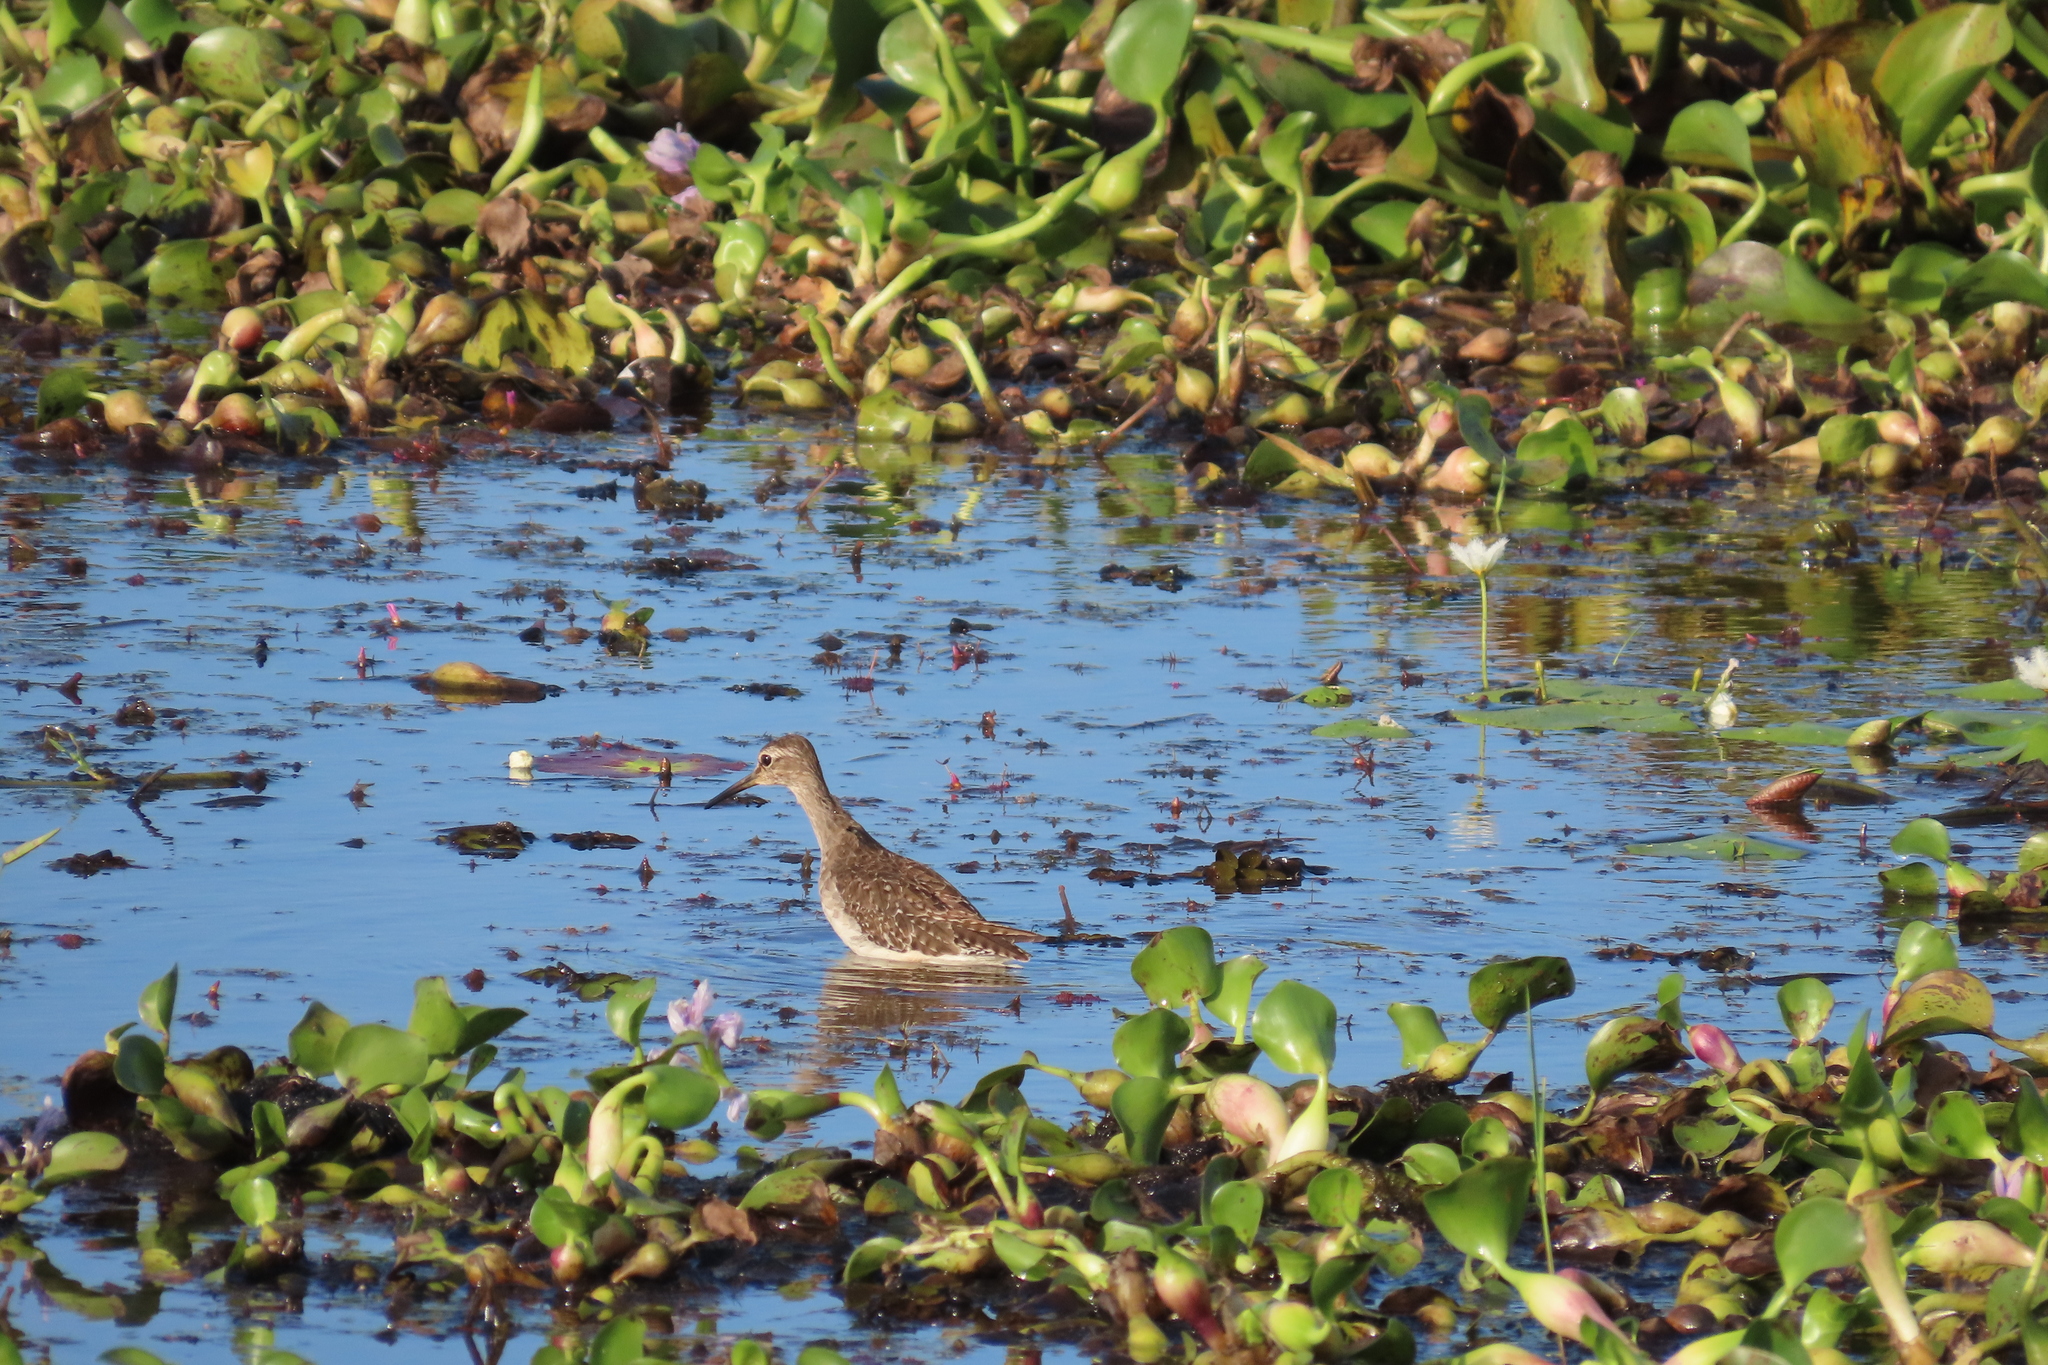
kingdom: Plantae
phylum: Tracheophyta
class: Liliopsida
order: Commelinales
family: Pontederiaceae
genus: Pontederia
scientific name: Pontederia crassipes
